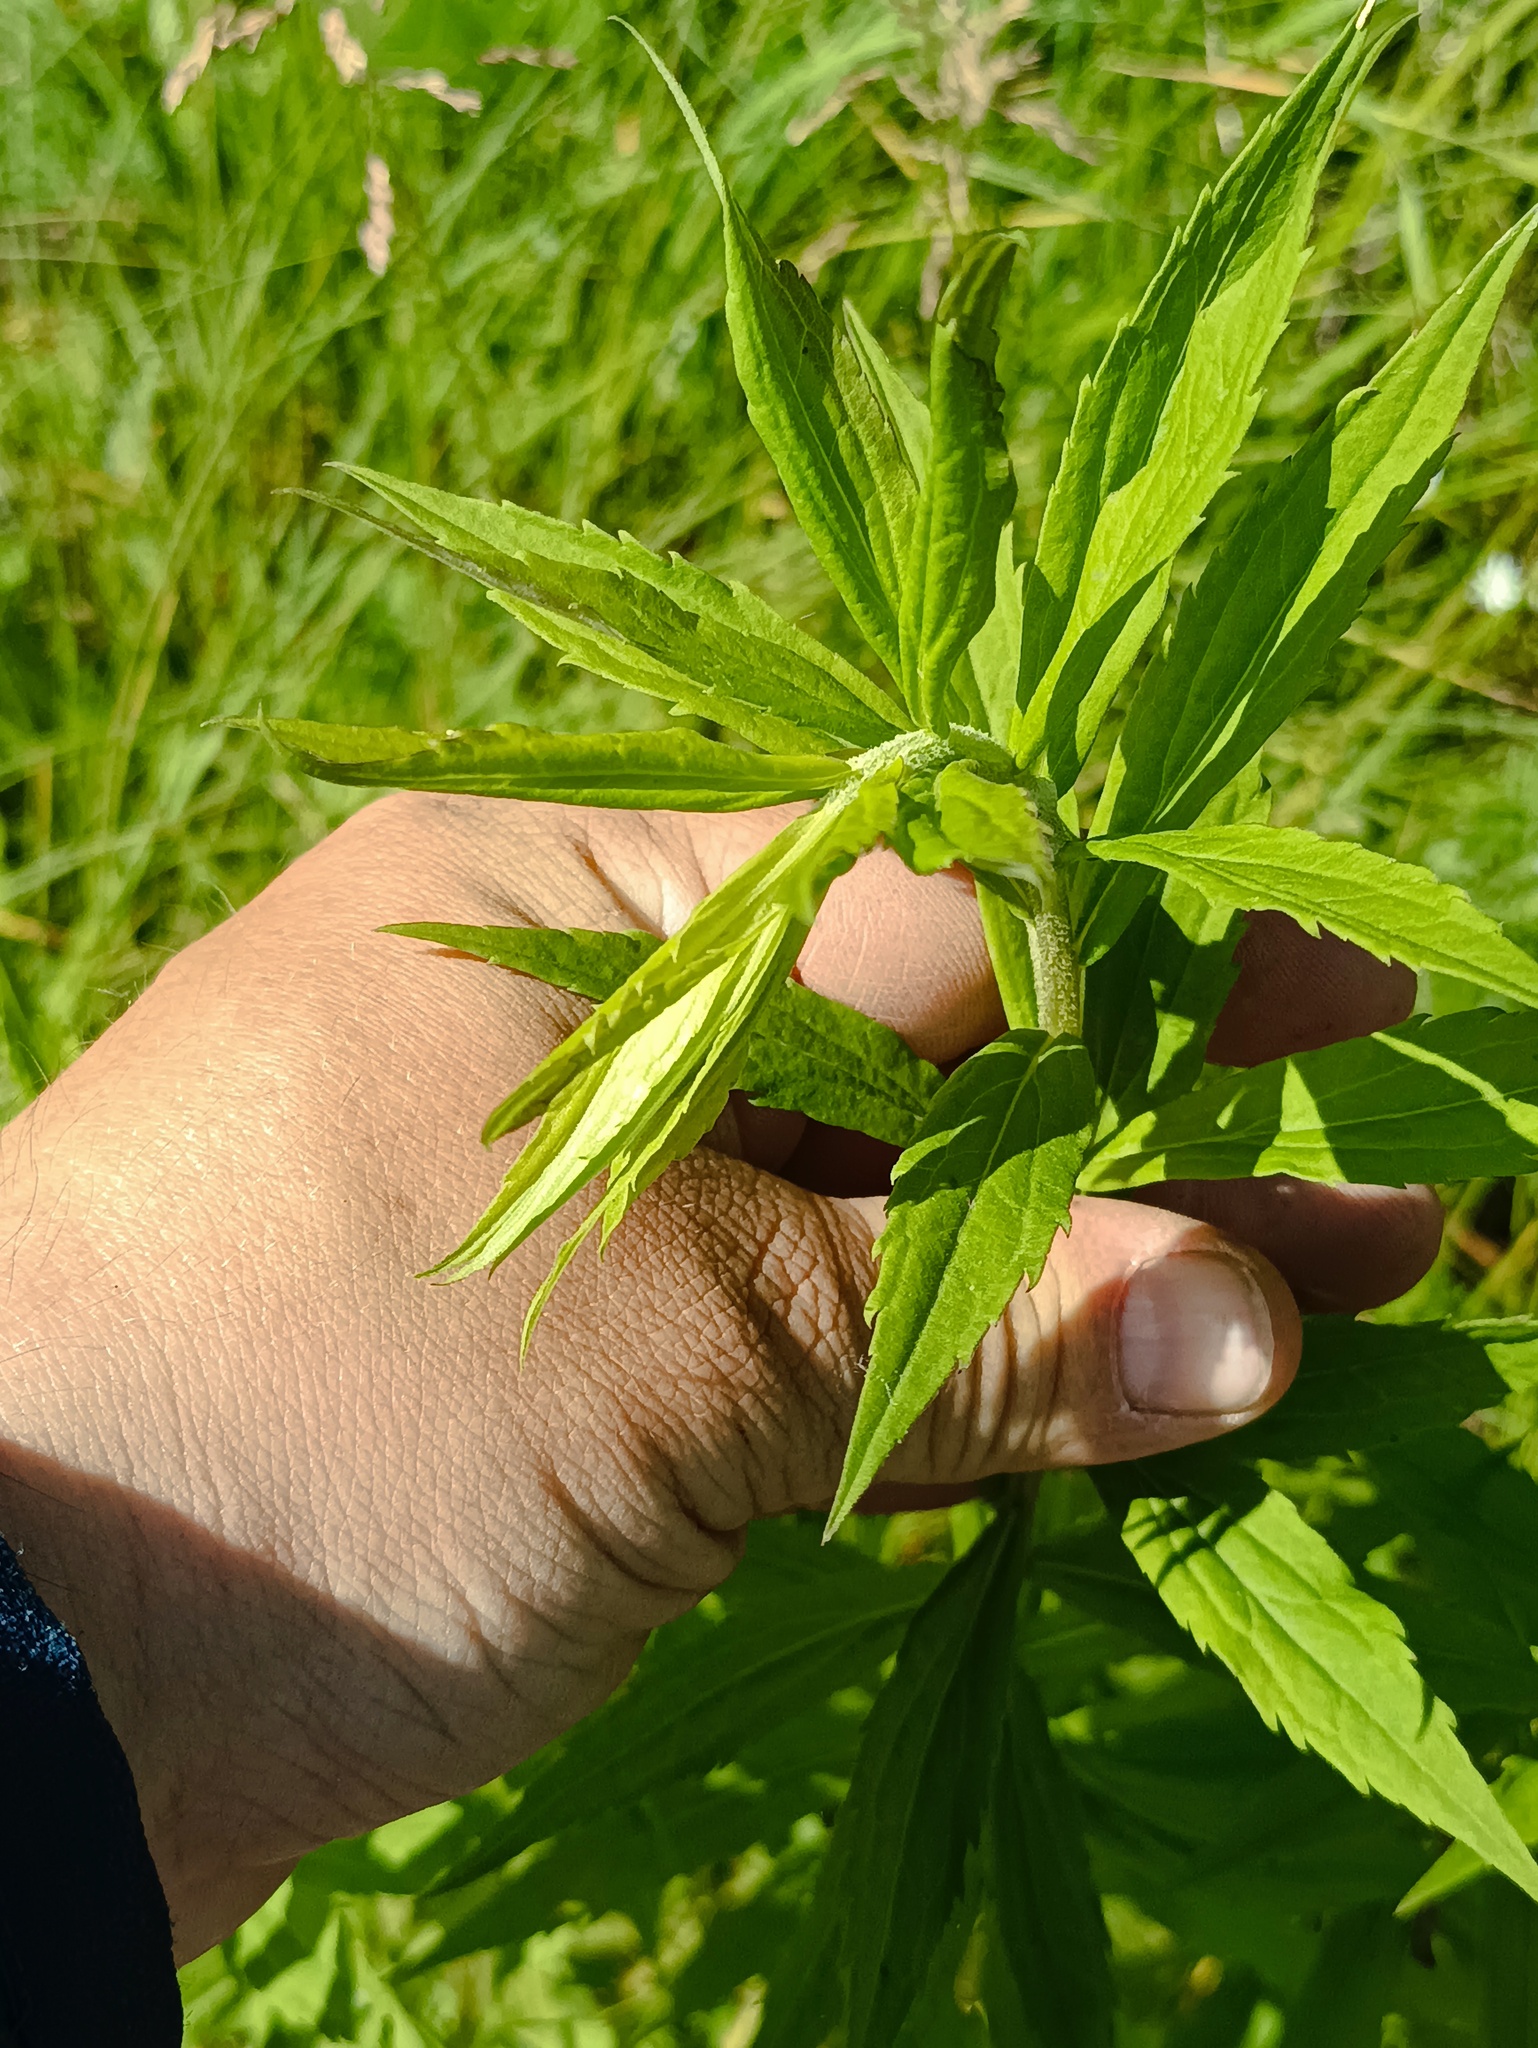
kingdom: Plantae
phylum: Tracheophyta
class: Magnoliopsida
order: Asterales
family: Asteraceae
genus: Solidago
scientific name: Solidago canadensis
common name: Canada goldenrod
